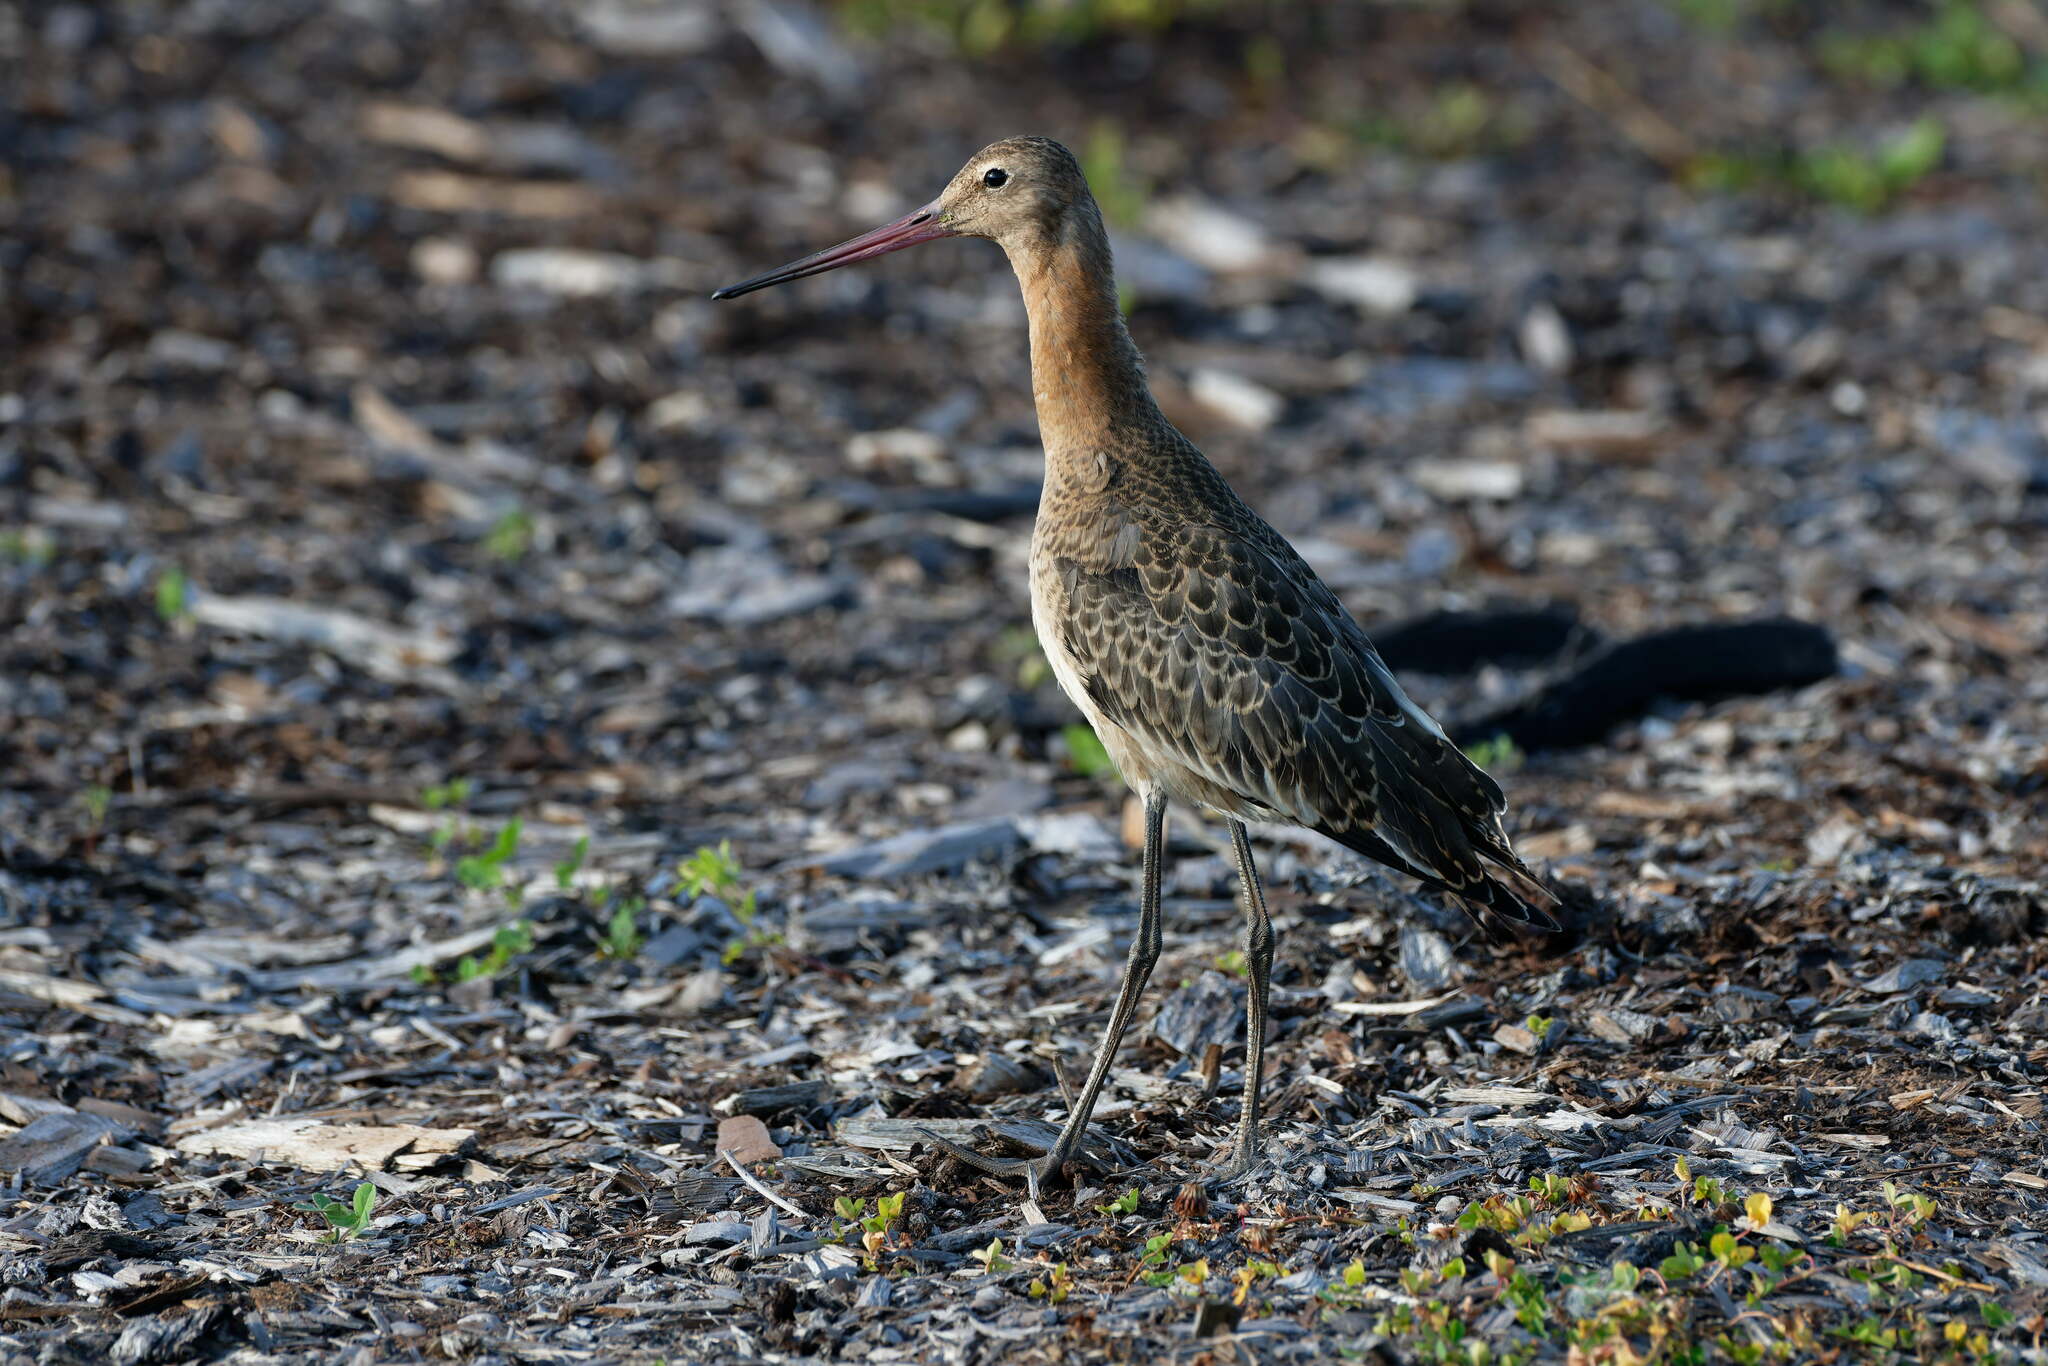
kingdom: Animalia
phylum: Chordata
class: Aves
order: Charadriiformes
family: Scolopacidae
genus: Limosa
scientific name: Limosa limosa
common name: Black-tailed godwit
